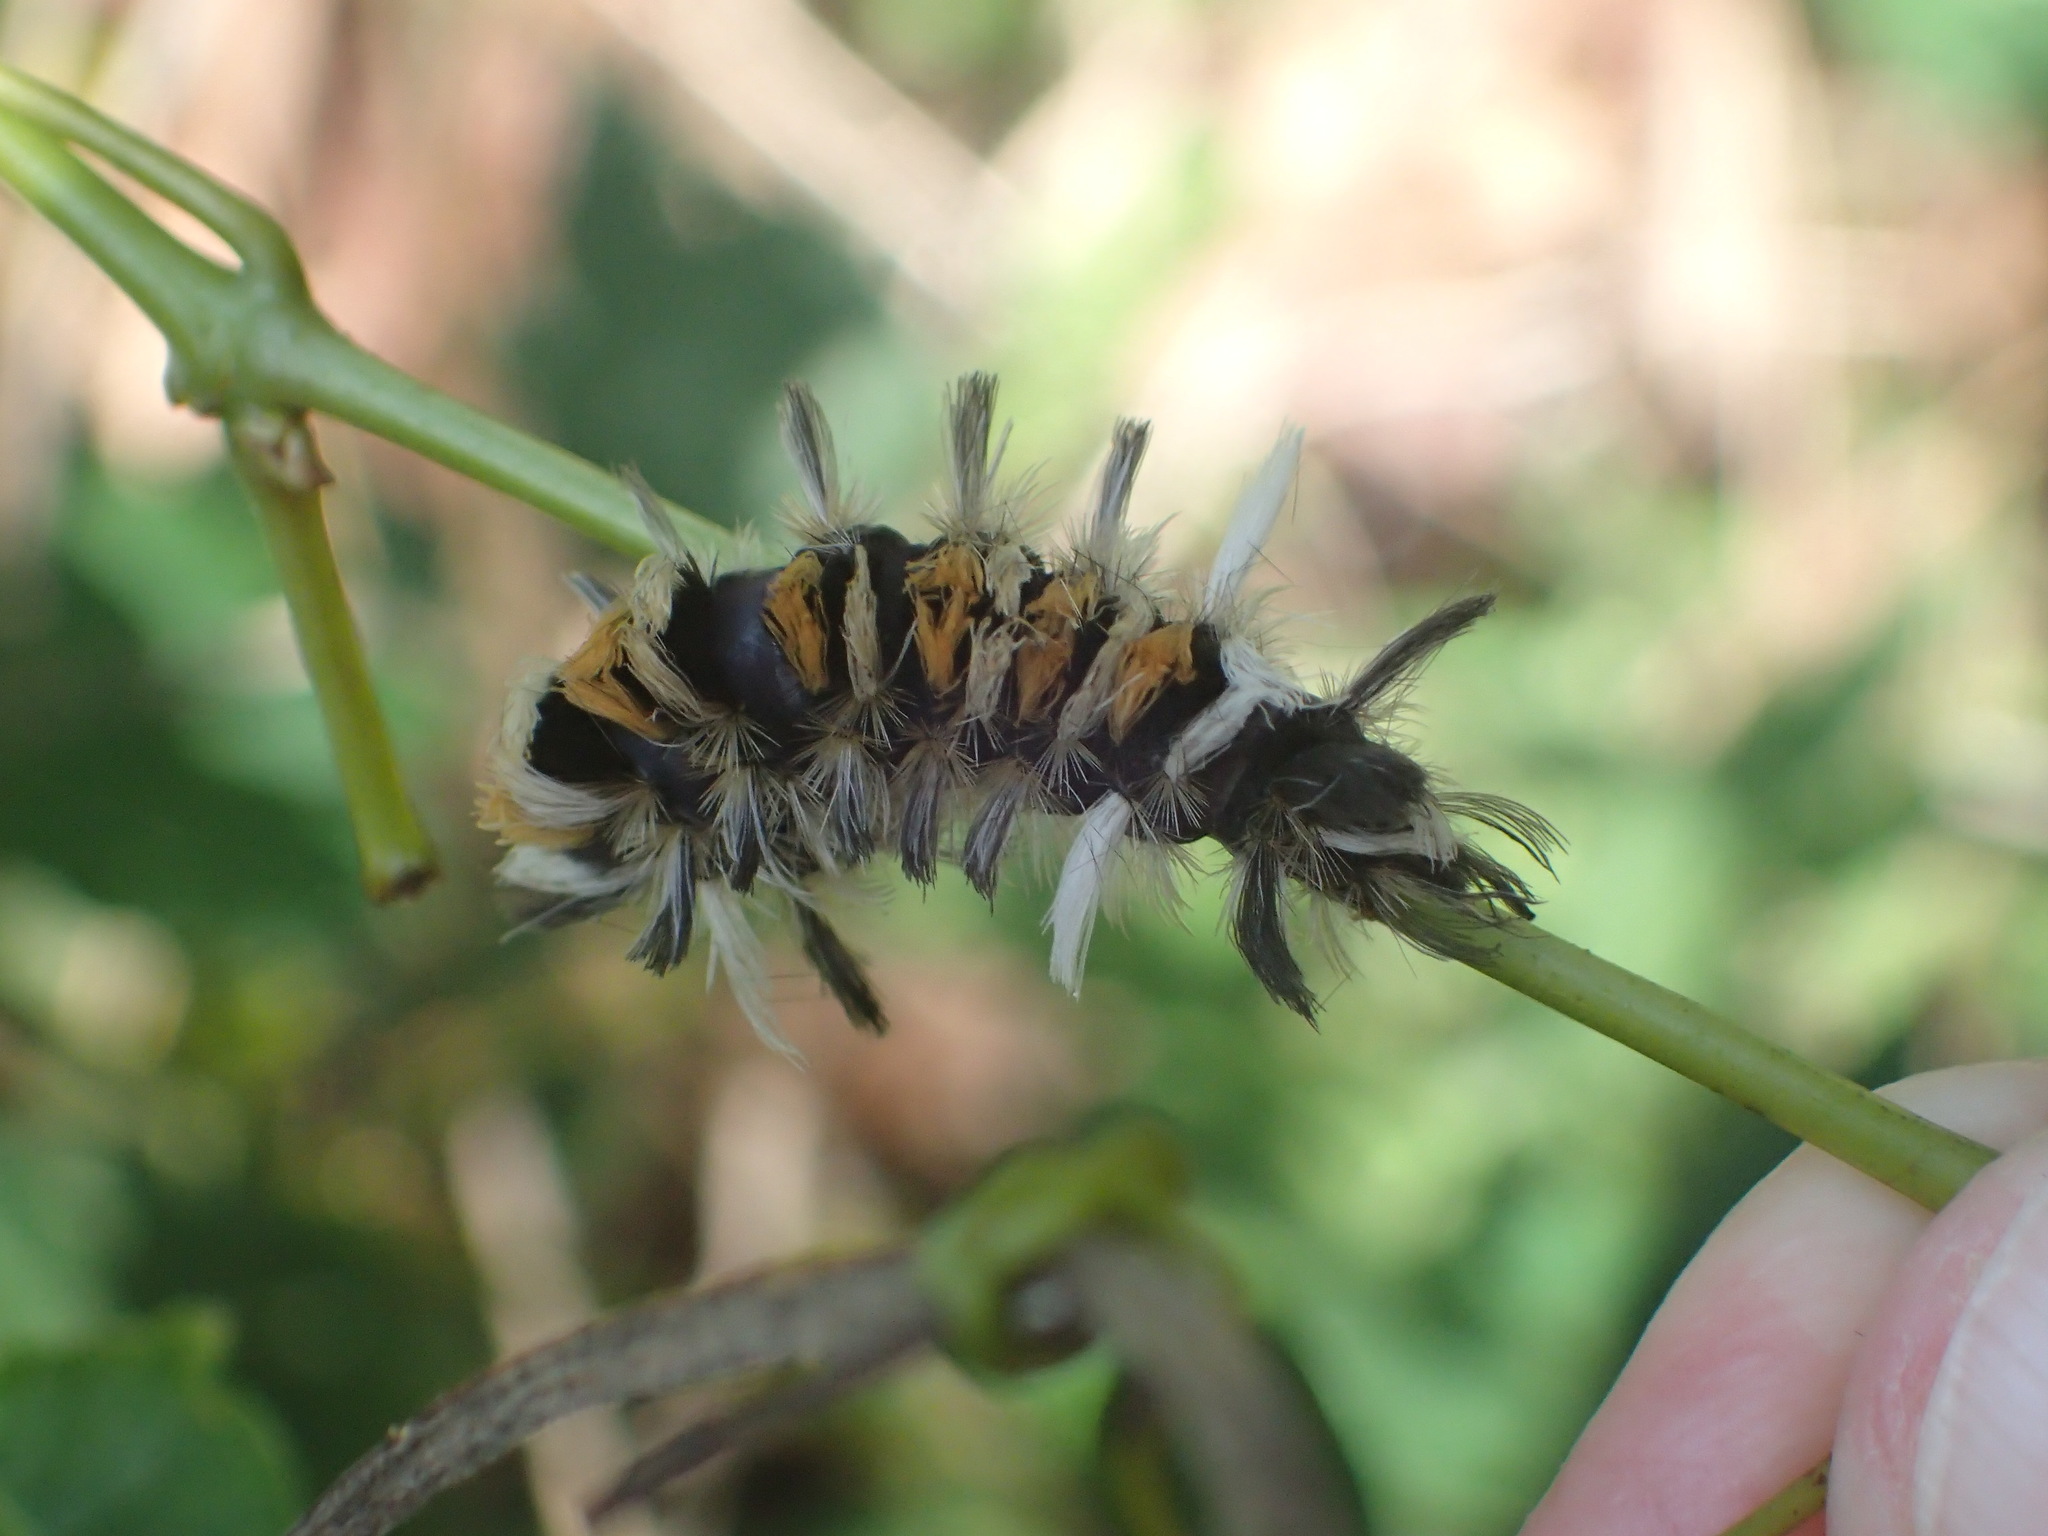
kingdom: Animalia
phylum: Arthropoda
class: Insecta
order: Lepidoptera
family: Erebidae
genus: Euchaetes
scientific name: Euchaetes egle
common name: Milkweed tussock moth
